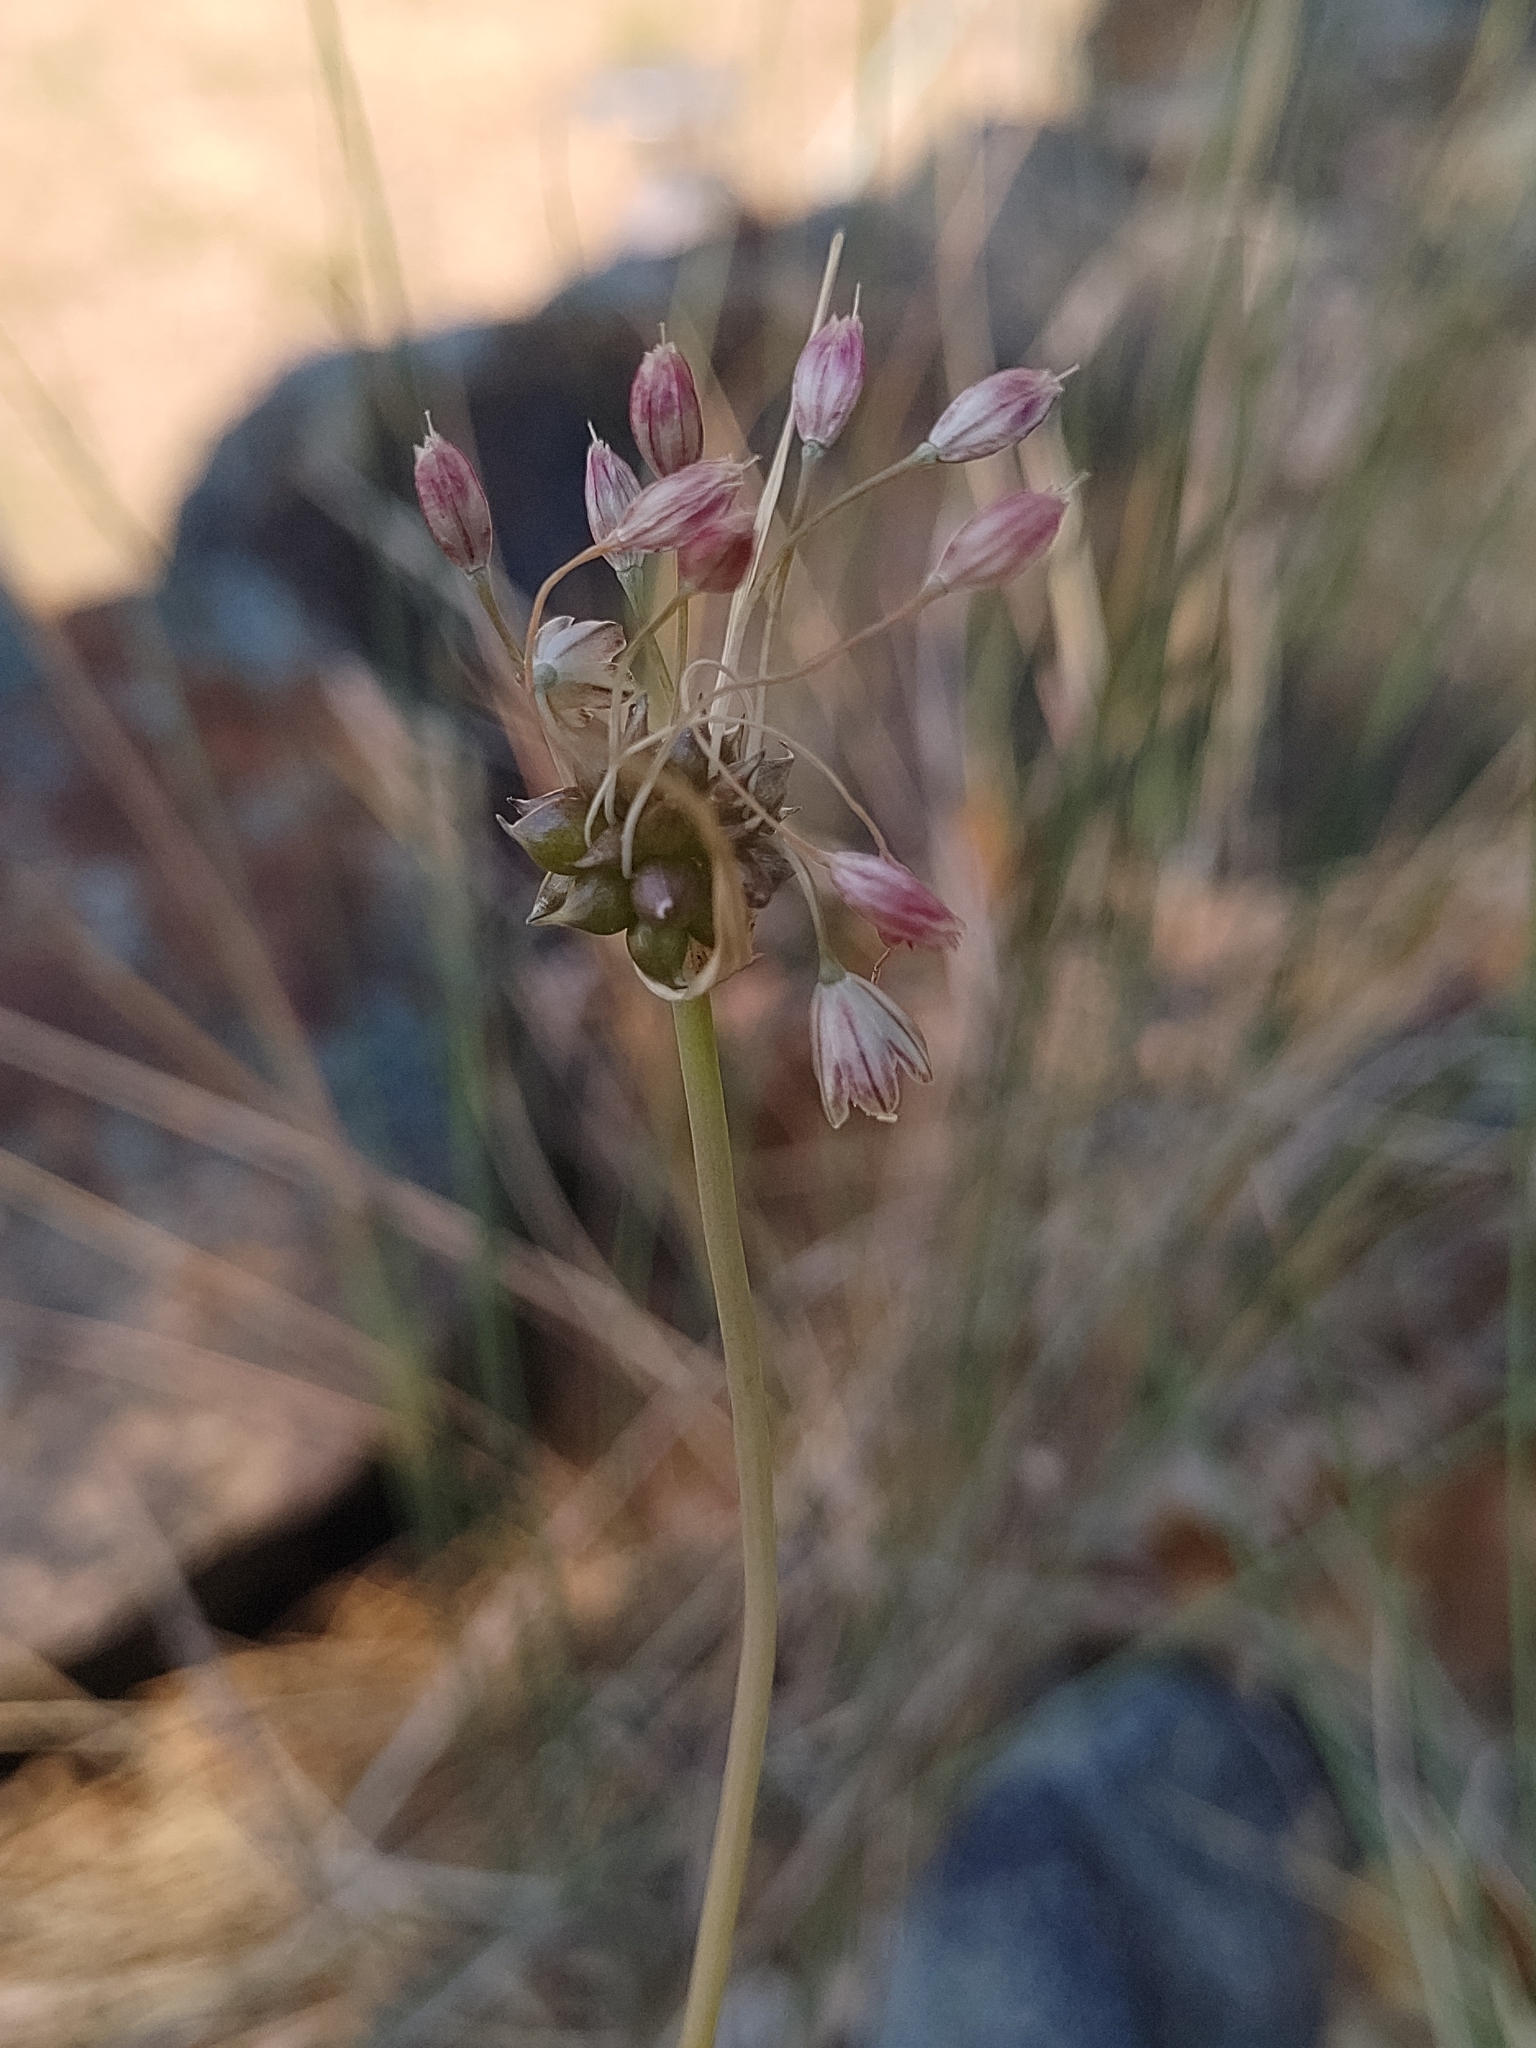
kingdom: Plantae
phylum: Tracheophyta
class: Liliopsida
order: Asparagales
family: Amaryllidaceae
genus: Allium
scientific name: Allium oleraceum
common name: Field garlic
